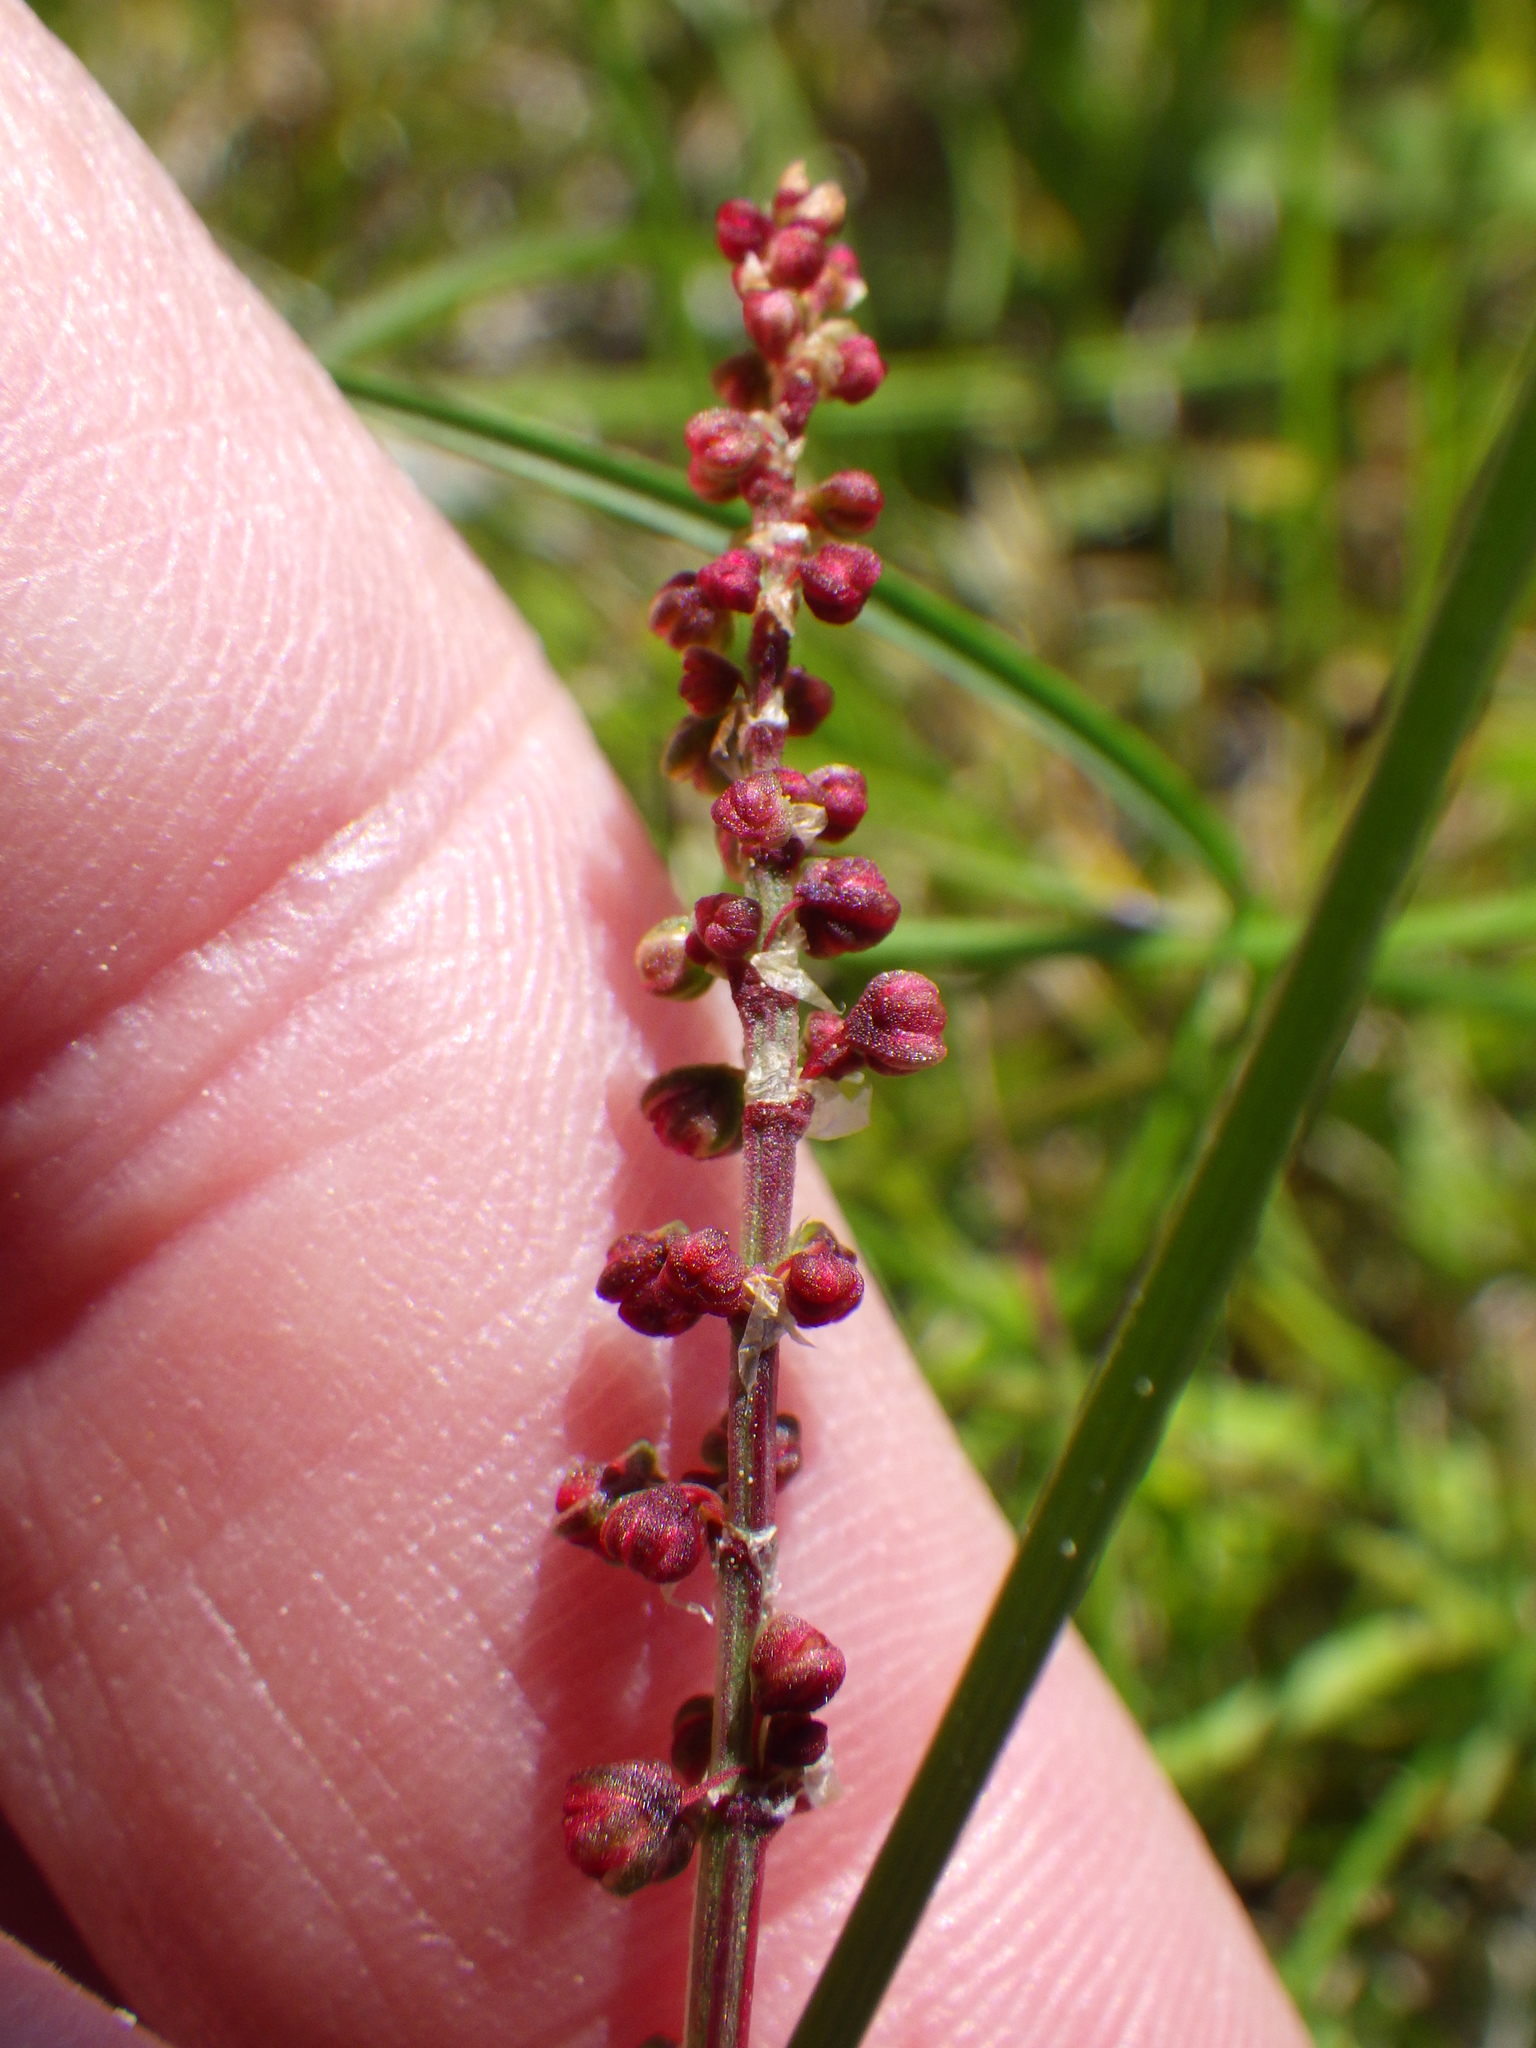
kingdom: Plantae
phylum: Tracheophyta
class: Magnoliopsida
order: Caryophyllales
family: Polygonaceae
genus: Rumex
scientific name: Rumex acetosella
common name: Common sheep sorrel
